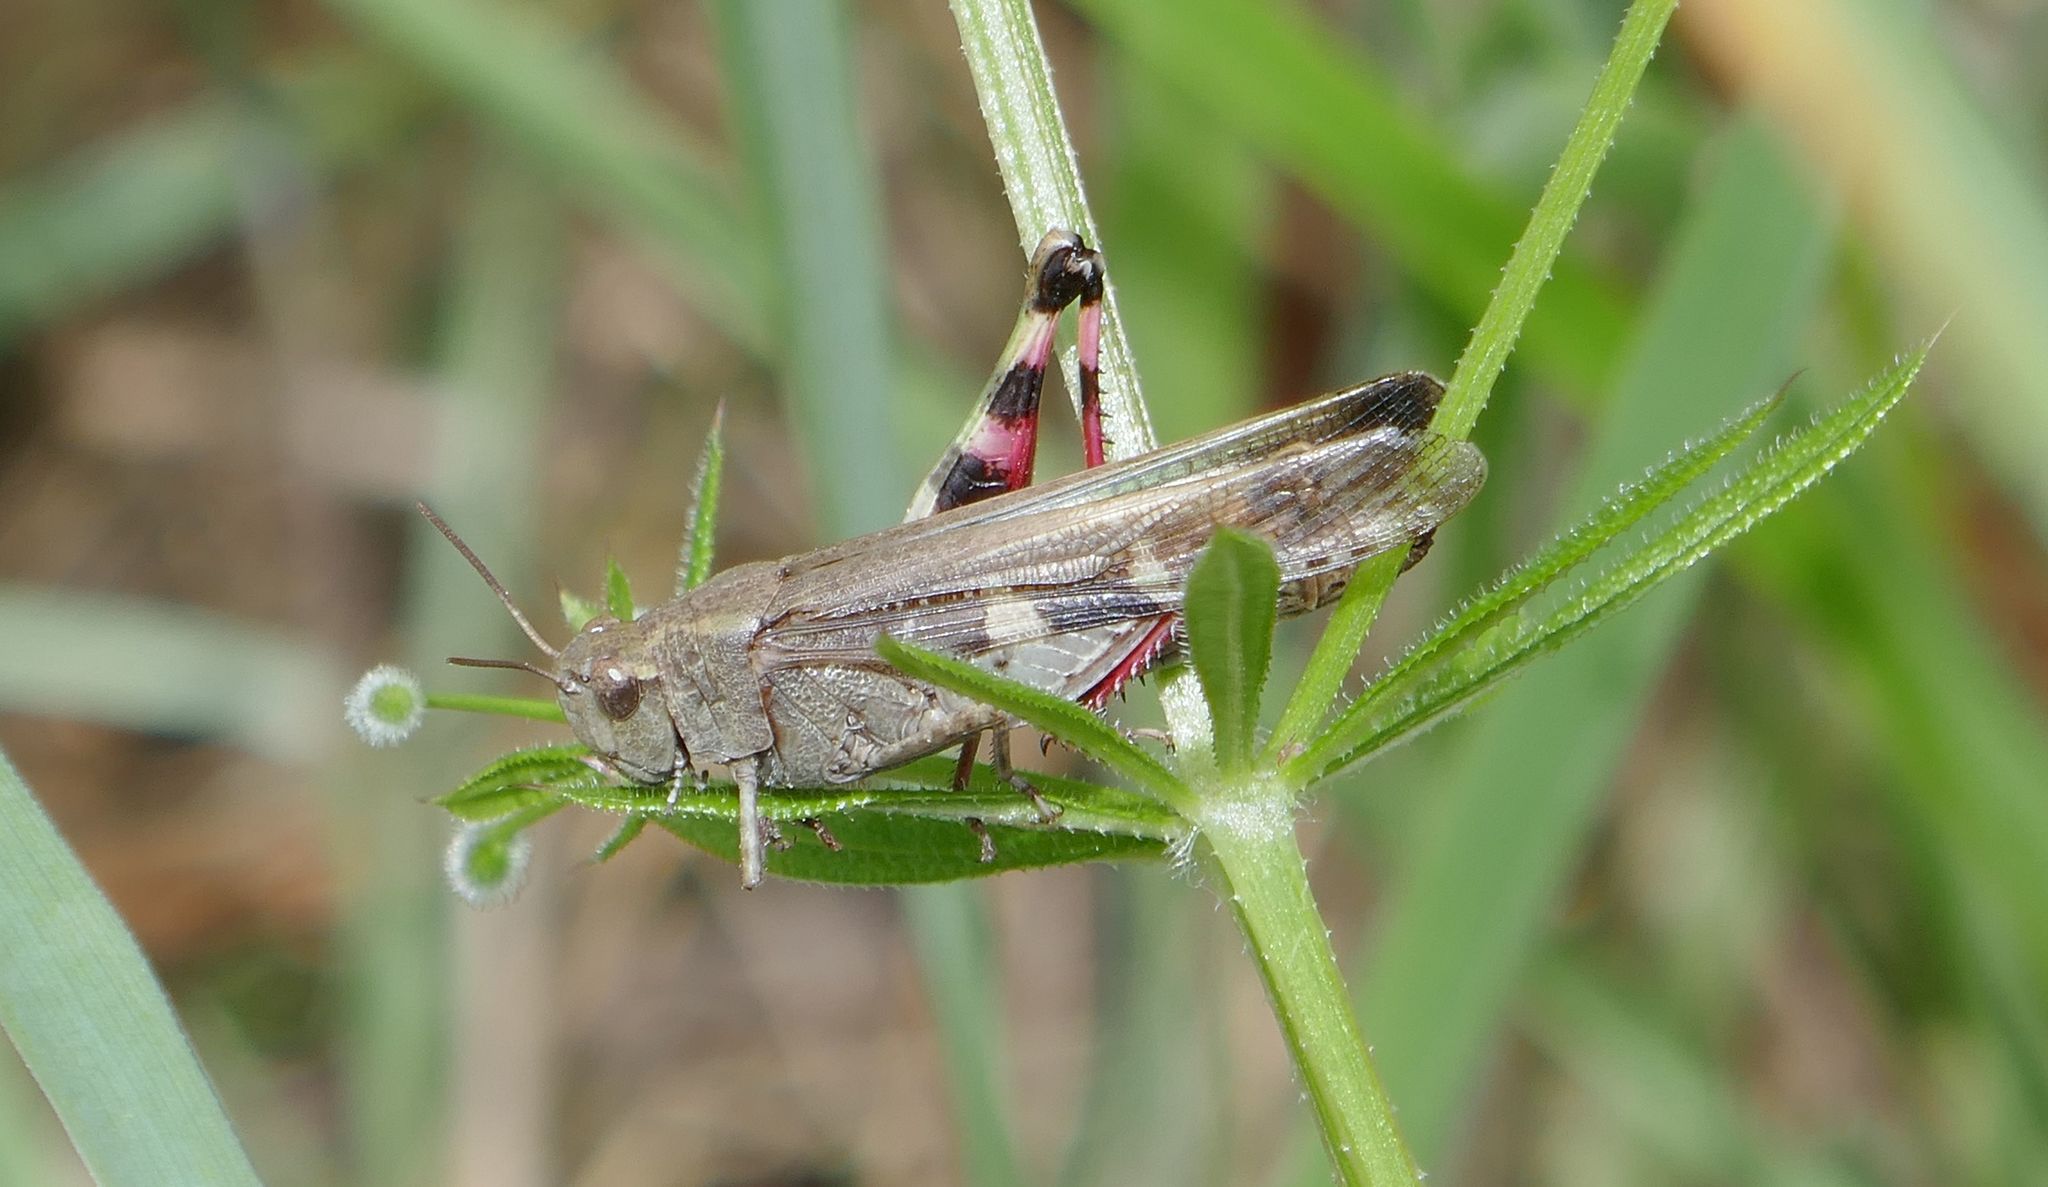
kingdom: Animalia
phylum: Arthropoda
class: Insecta
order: Orthoptera
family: Acrididae
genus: Aiolopus
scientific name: Aiolopus strepens
